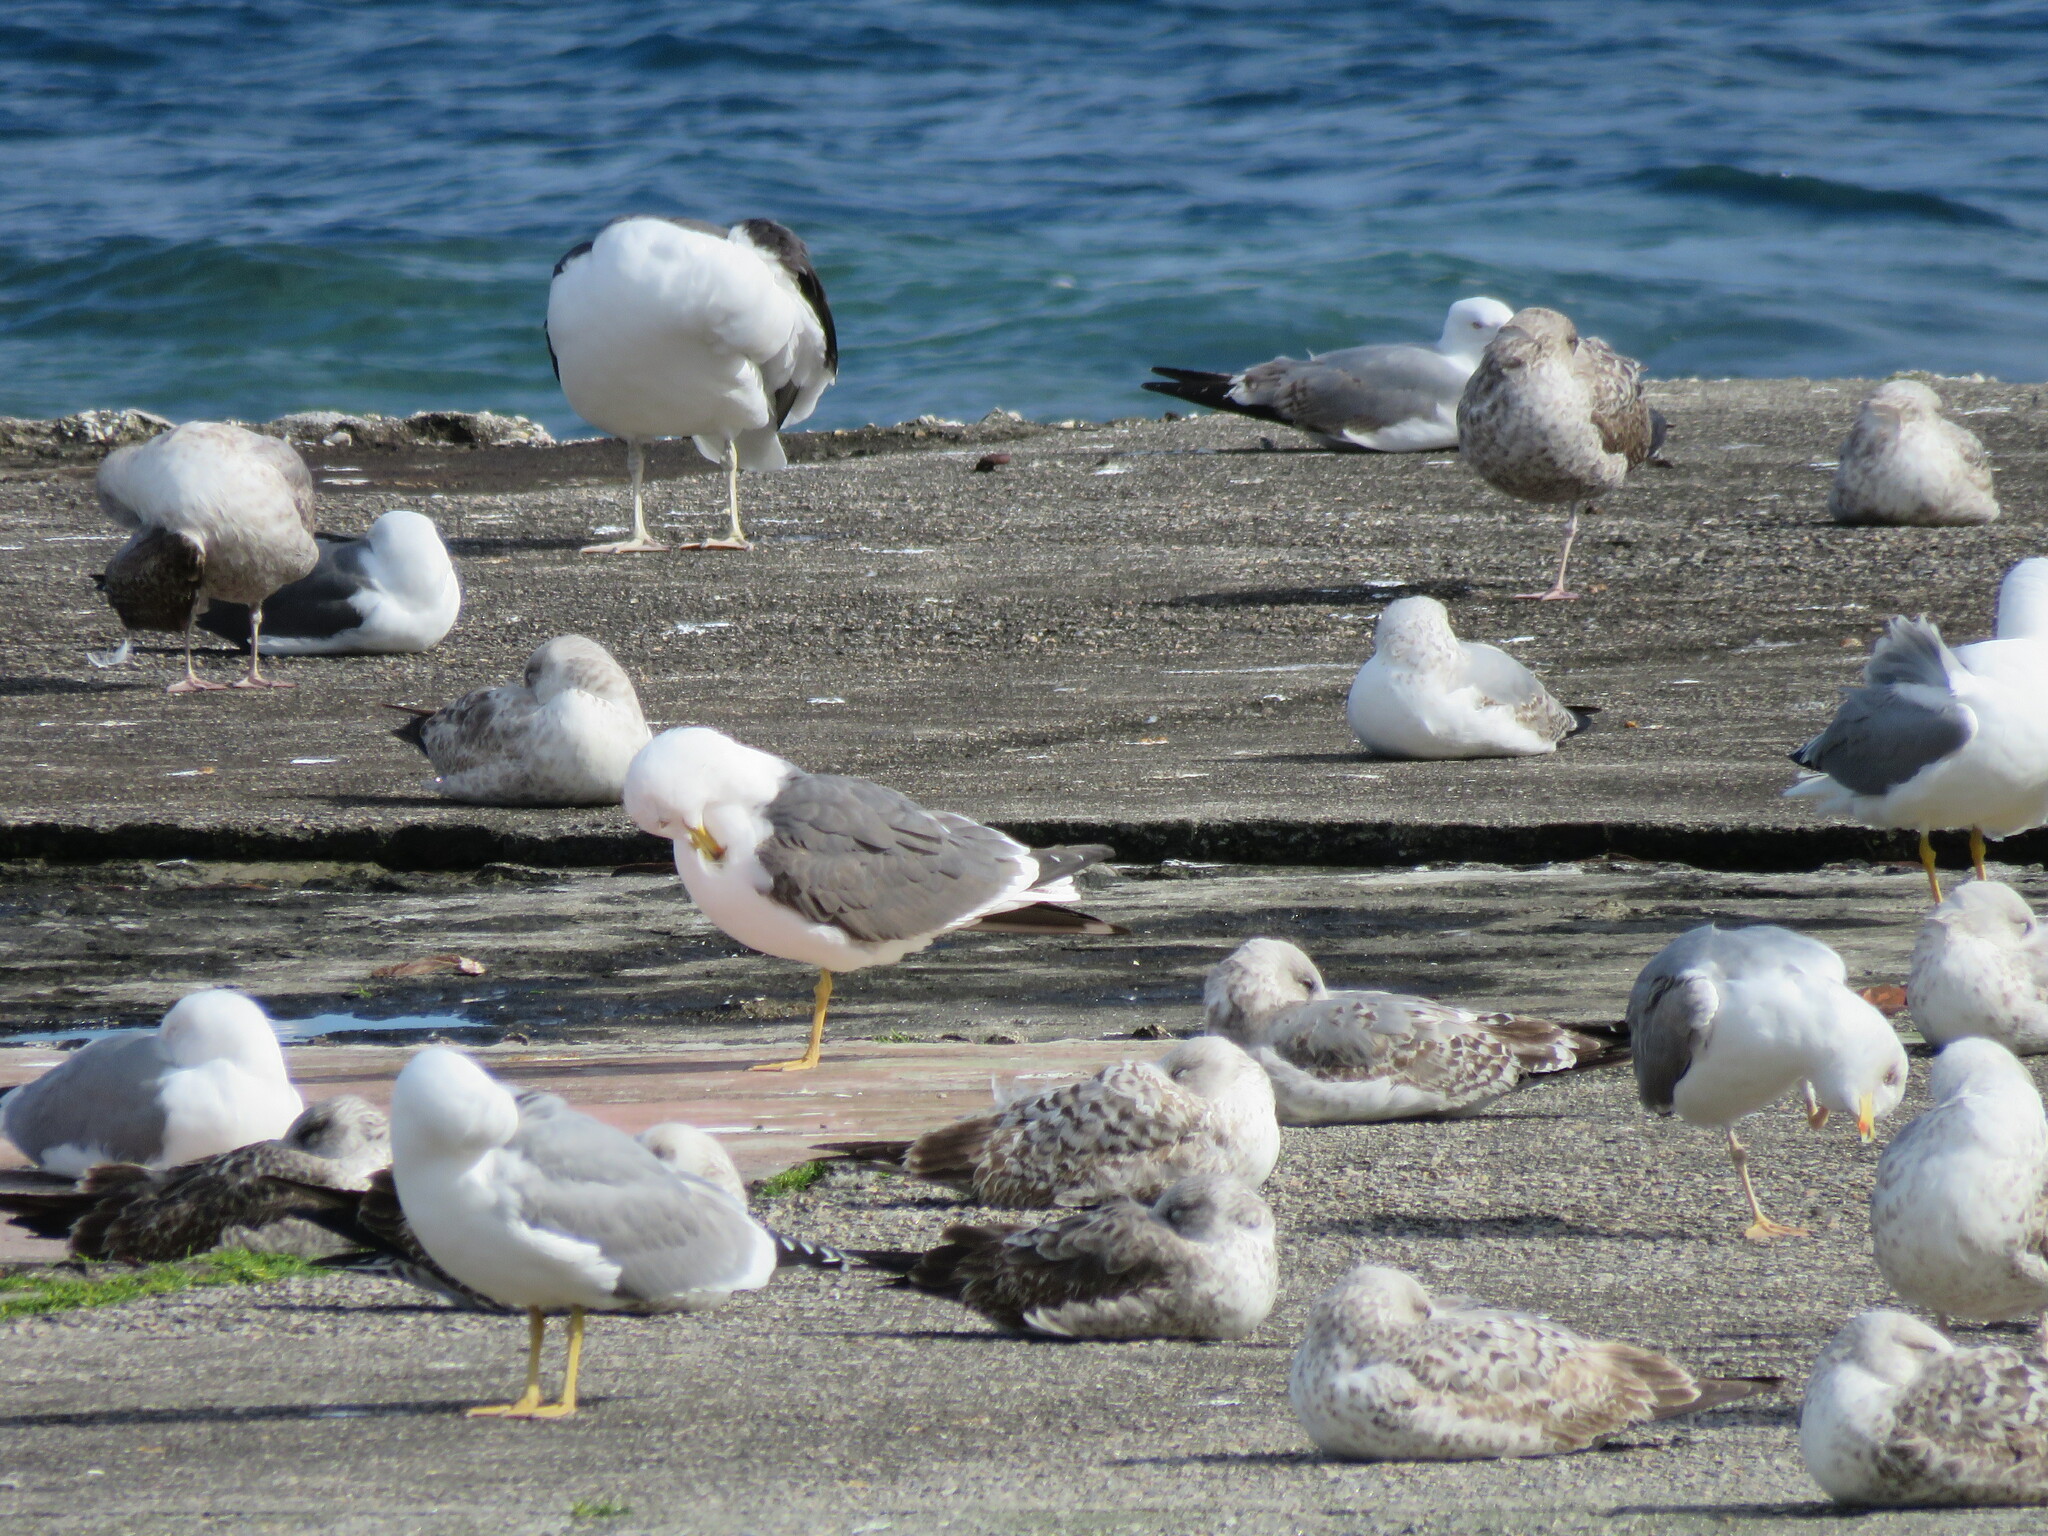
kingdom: Animalia
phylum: Chordata
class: Aves
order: Charadriiformes
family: Laridae
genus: Larus
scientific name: Larus fuscus
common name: Lesser black-backed gull
